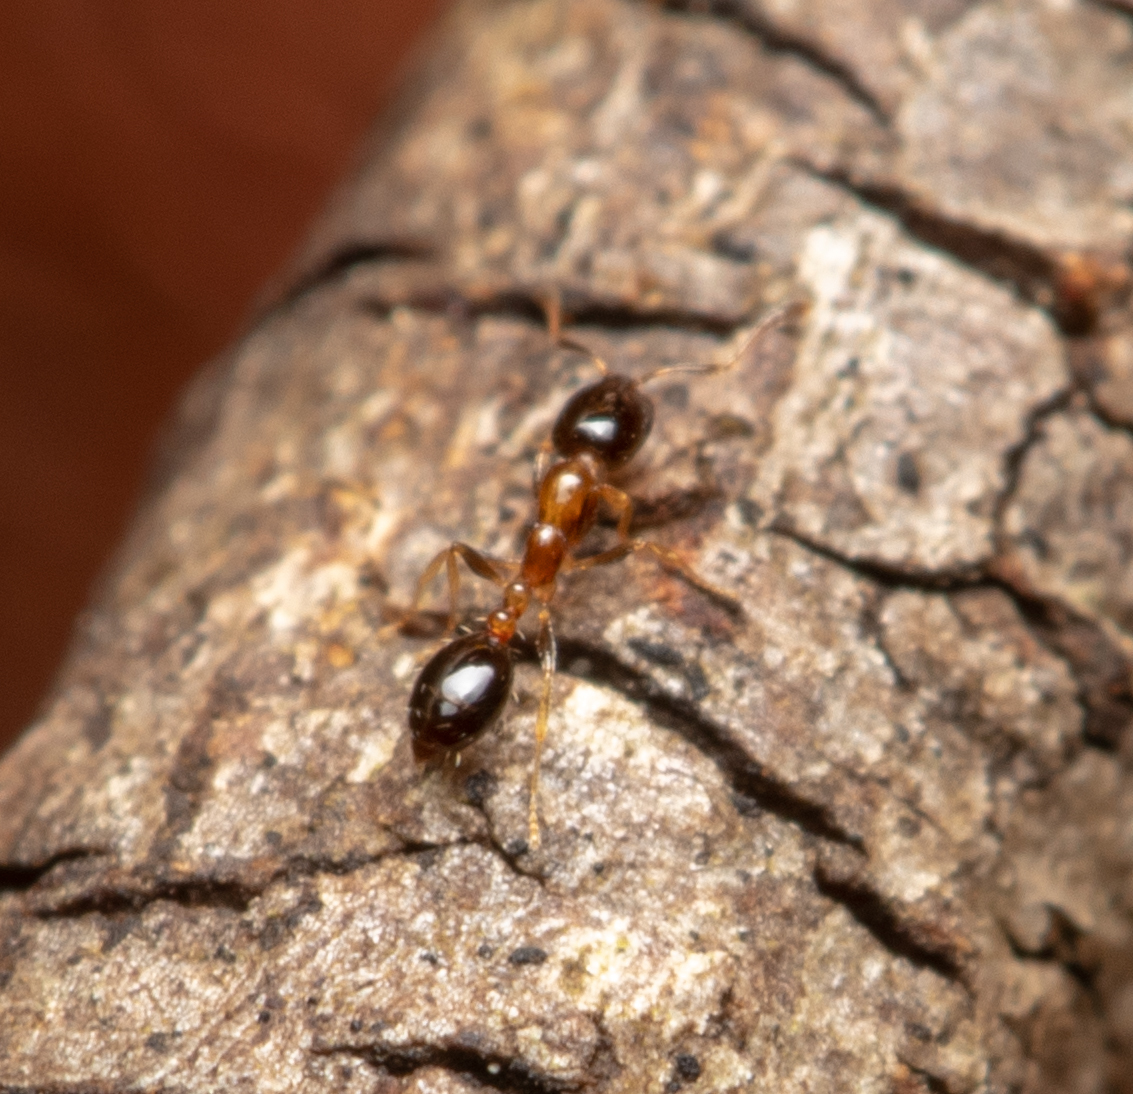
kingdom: Animalia
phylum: Arthropoda
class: Insecta
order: Hymenoptera
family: Formicidae
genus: Monomorium
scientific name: Monomorium floricola
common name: Bicolored trailing ant
